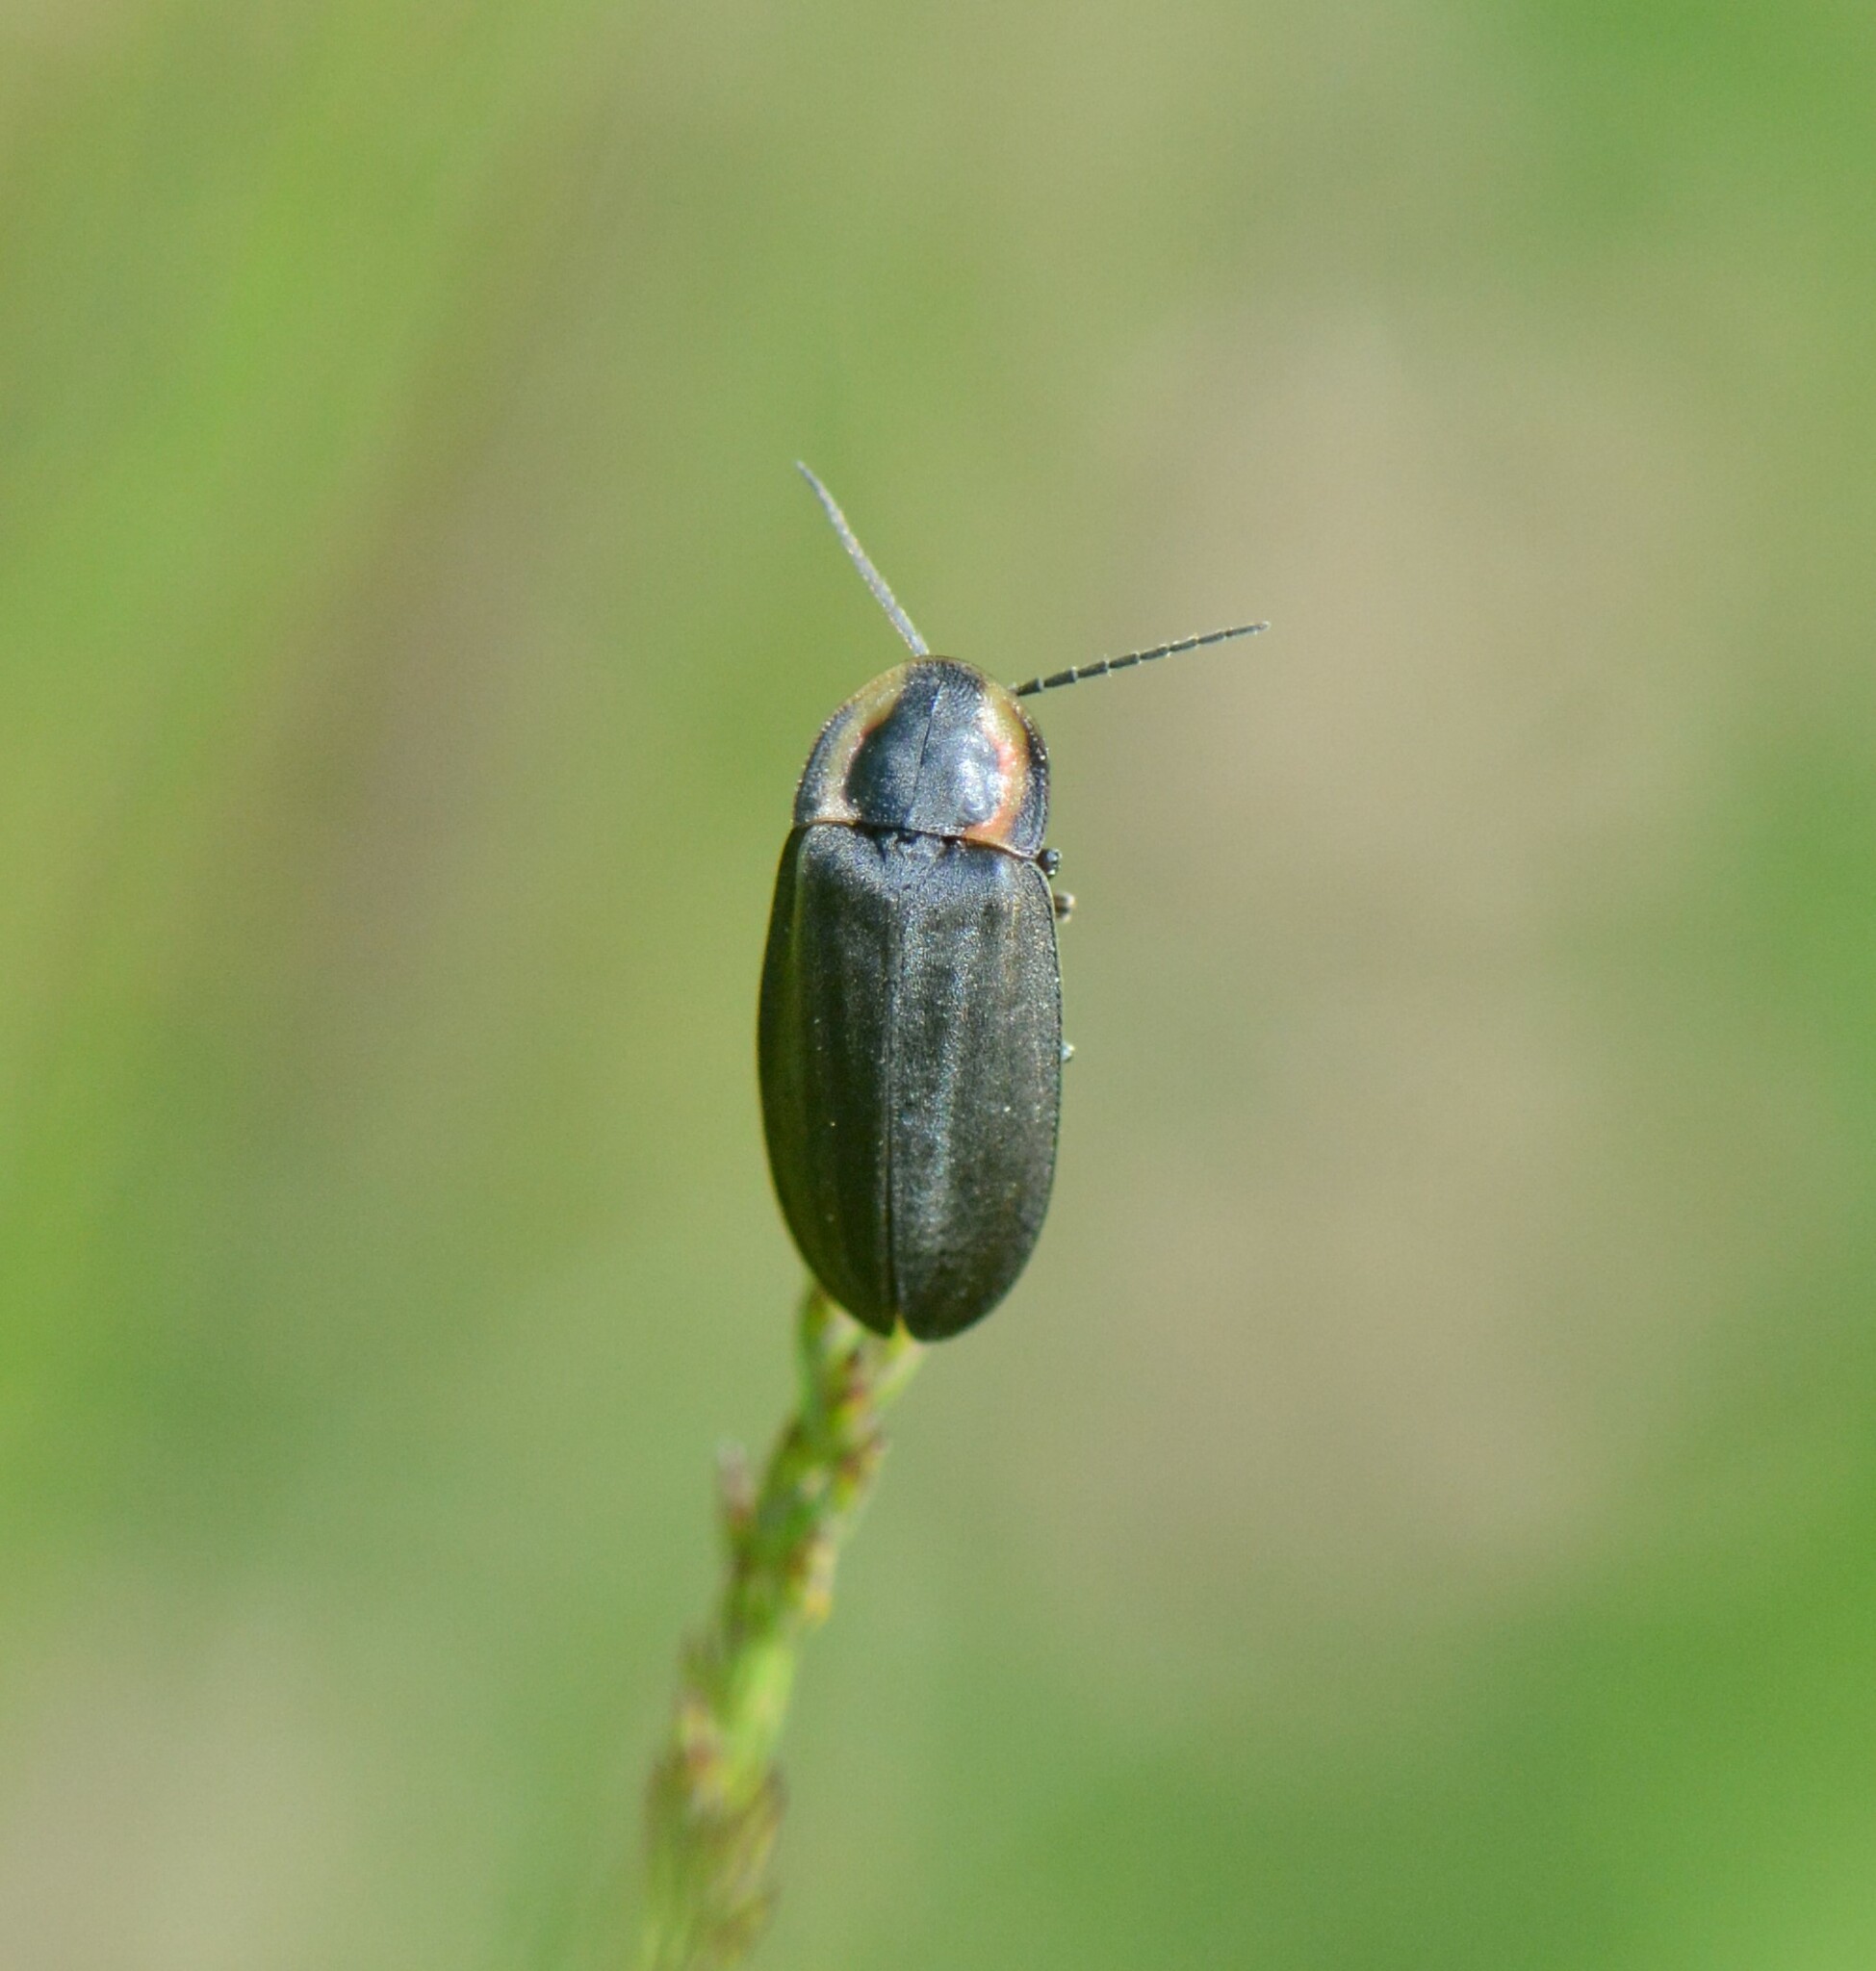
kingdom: Animalia
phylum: Arthropoda
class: Insecta
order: Coleoptera
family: Lampyridae
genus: Photinus
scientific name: Photinus corrusca
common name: Winter firefly
